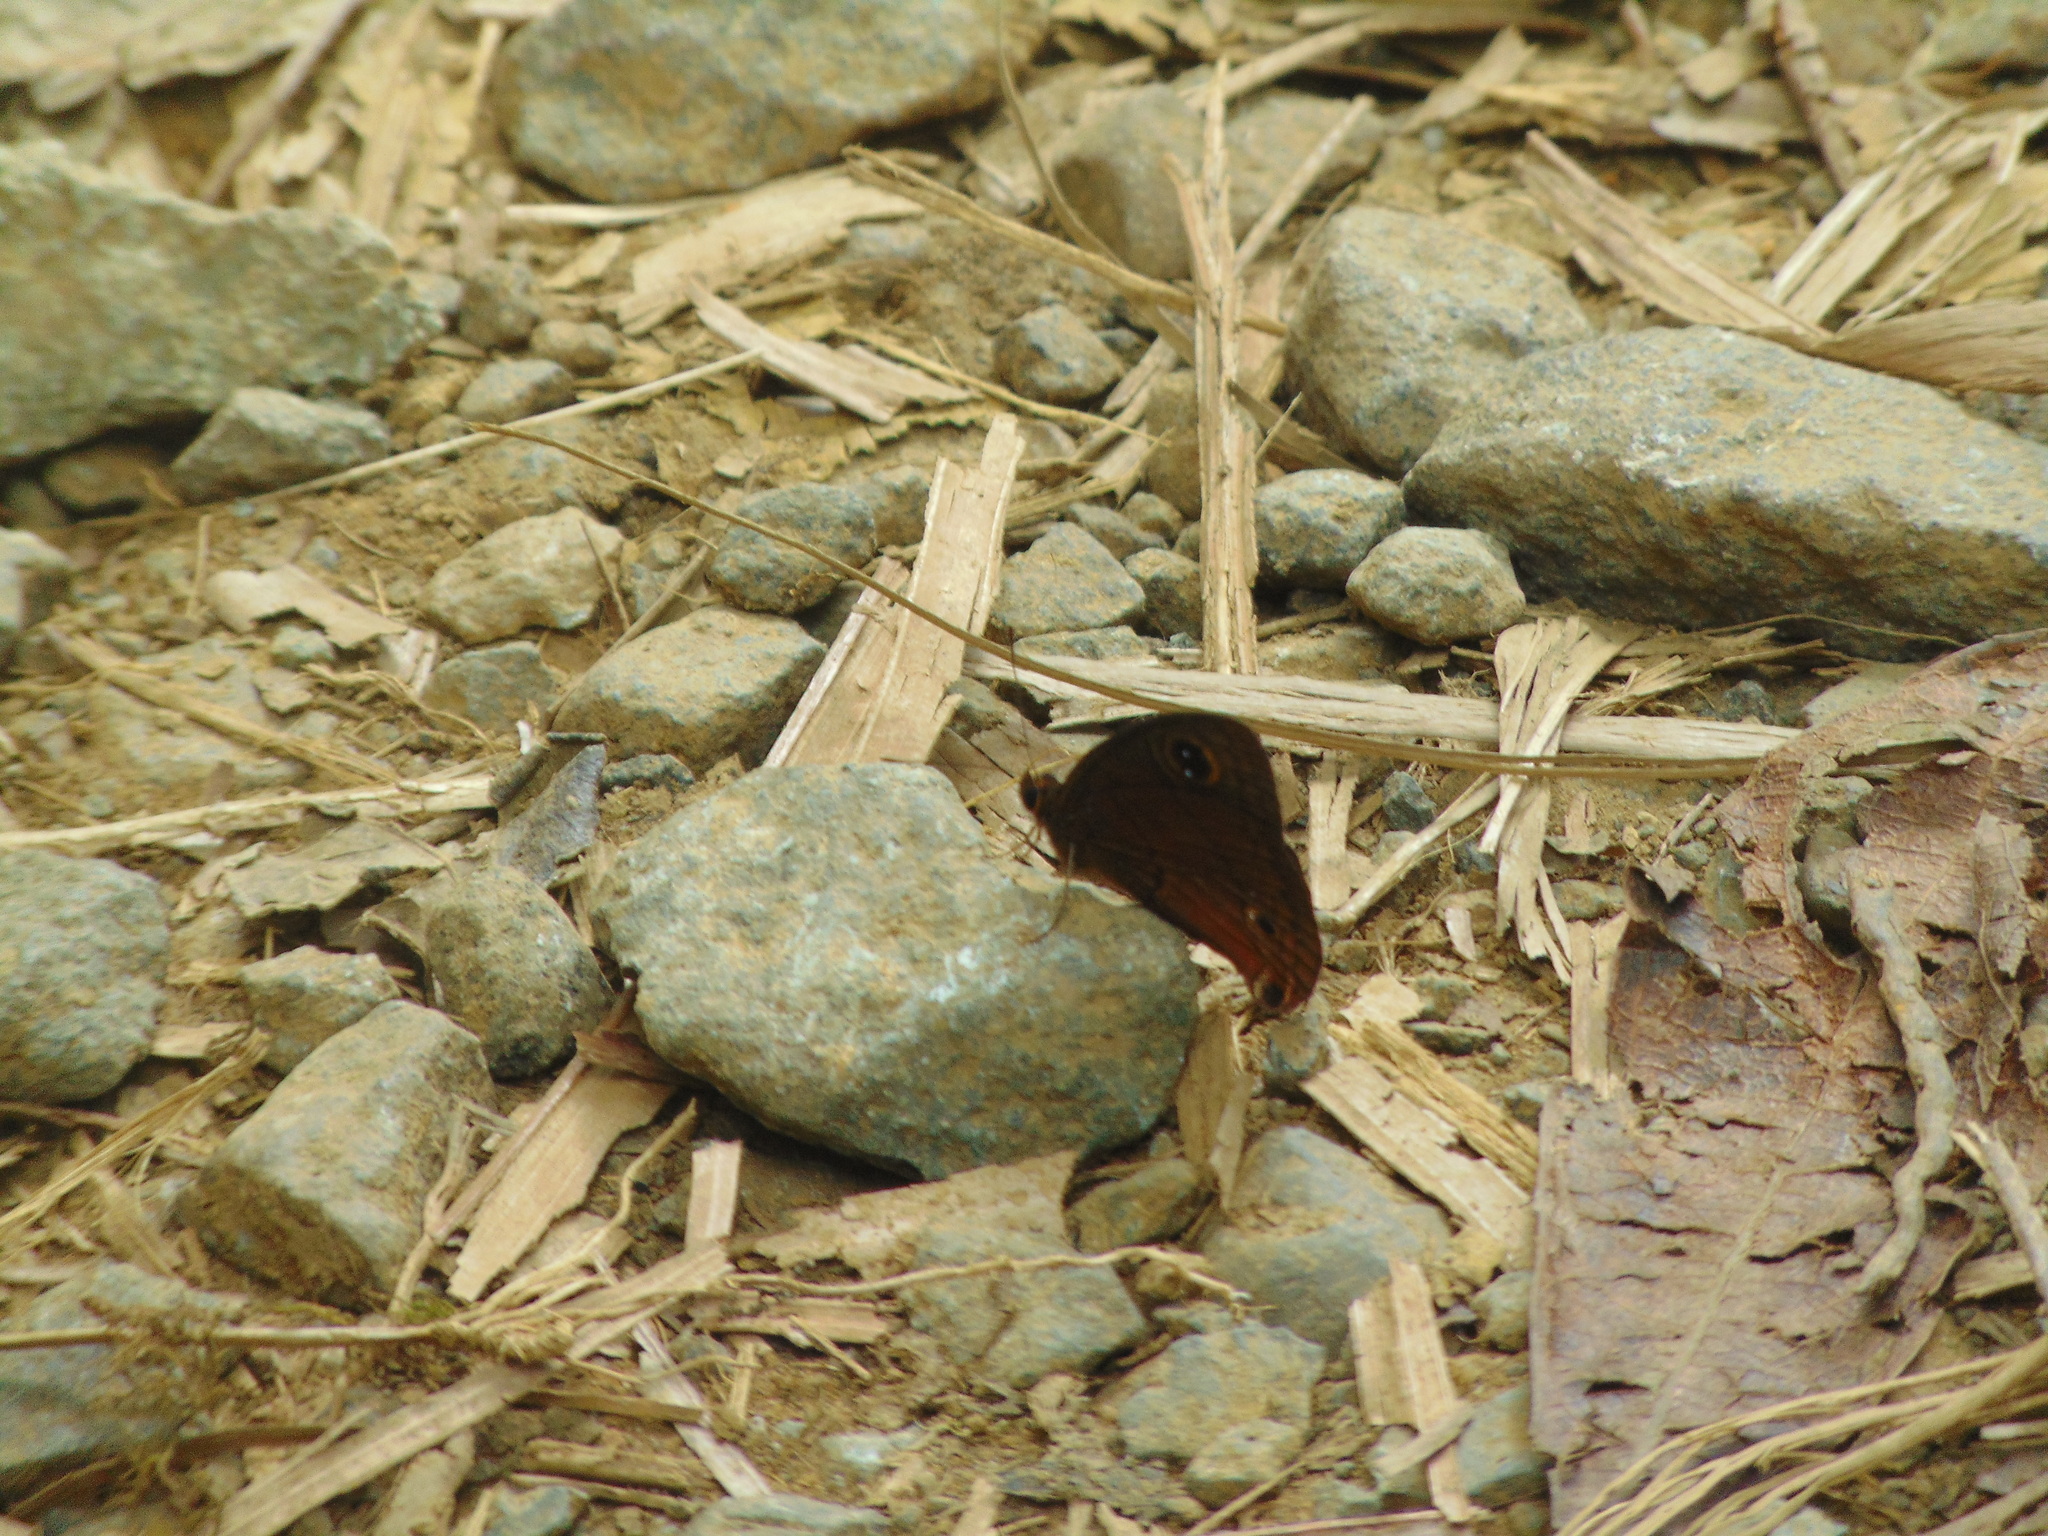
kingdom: Animalia
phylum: Arthropoda
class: Insecta
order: Lepidoptera
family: Nymphalidae
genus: Calisto
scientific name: Calisto nubila
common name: Puerto rican calisto
